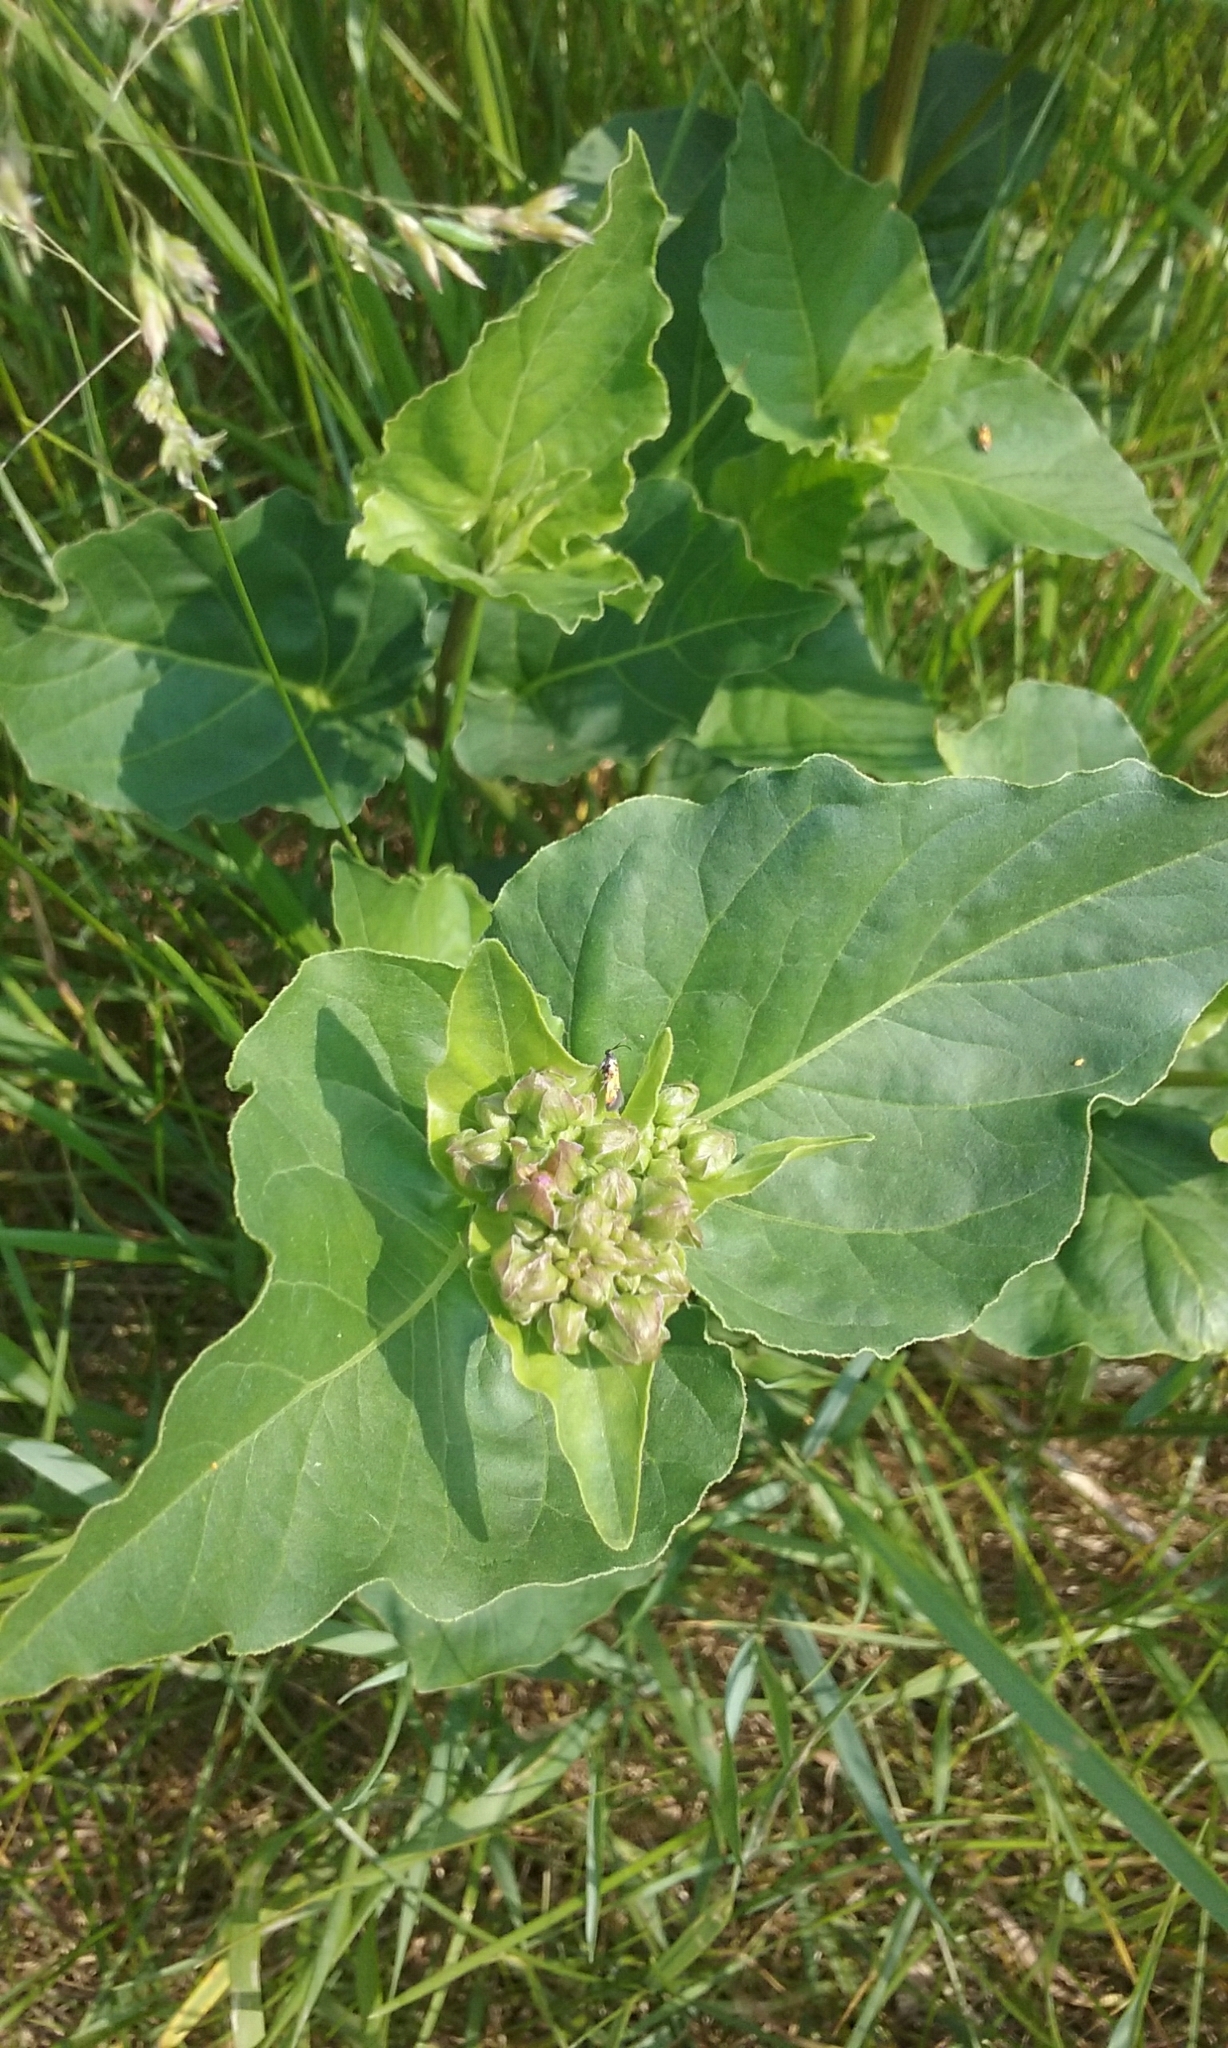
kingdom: Plantae
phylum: Tracheophyta
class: Magnoliopsida
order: Caryophyllales
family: Nyctaginaceae
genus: Mirabilis
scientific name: Mirabilis nyctaginea
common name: Umbrella wort
